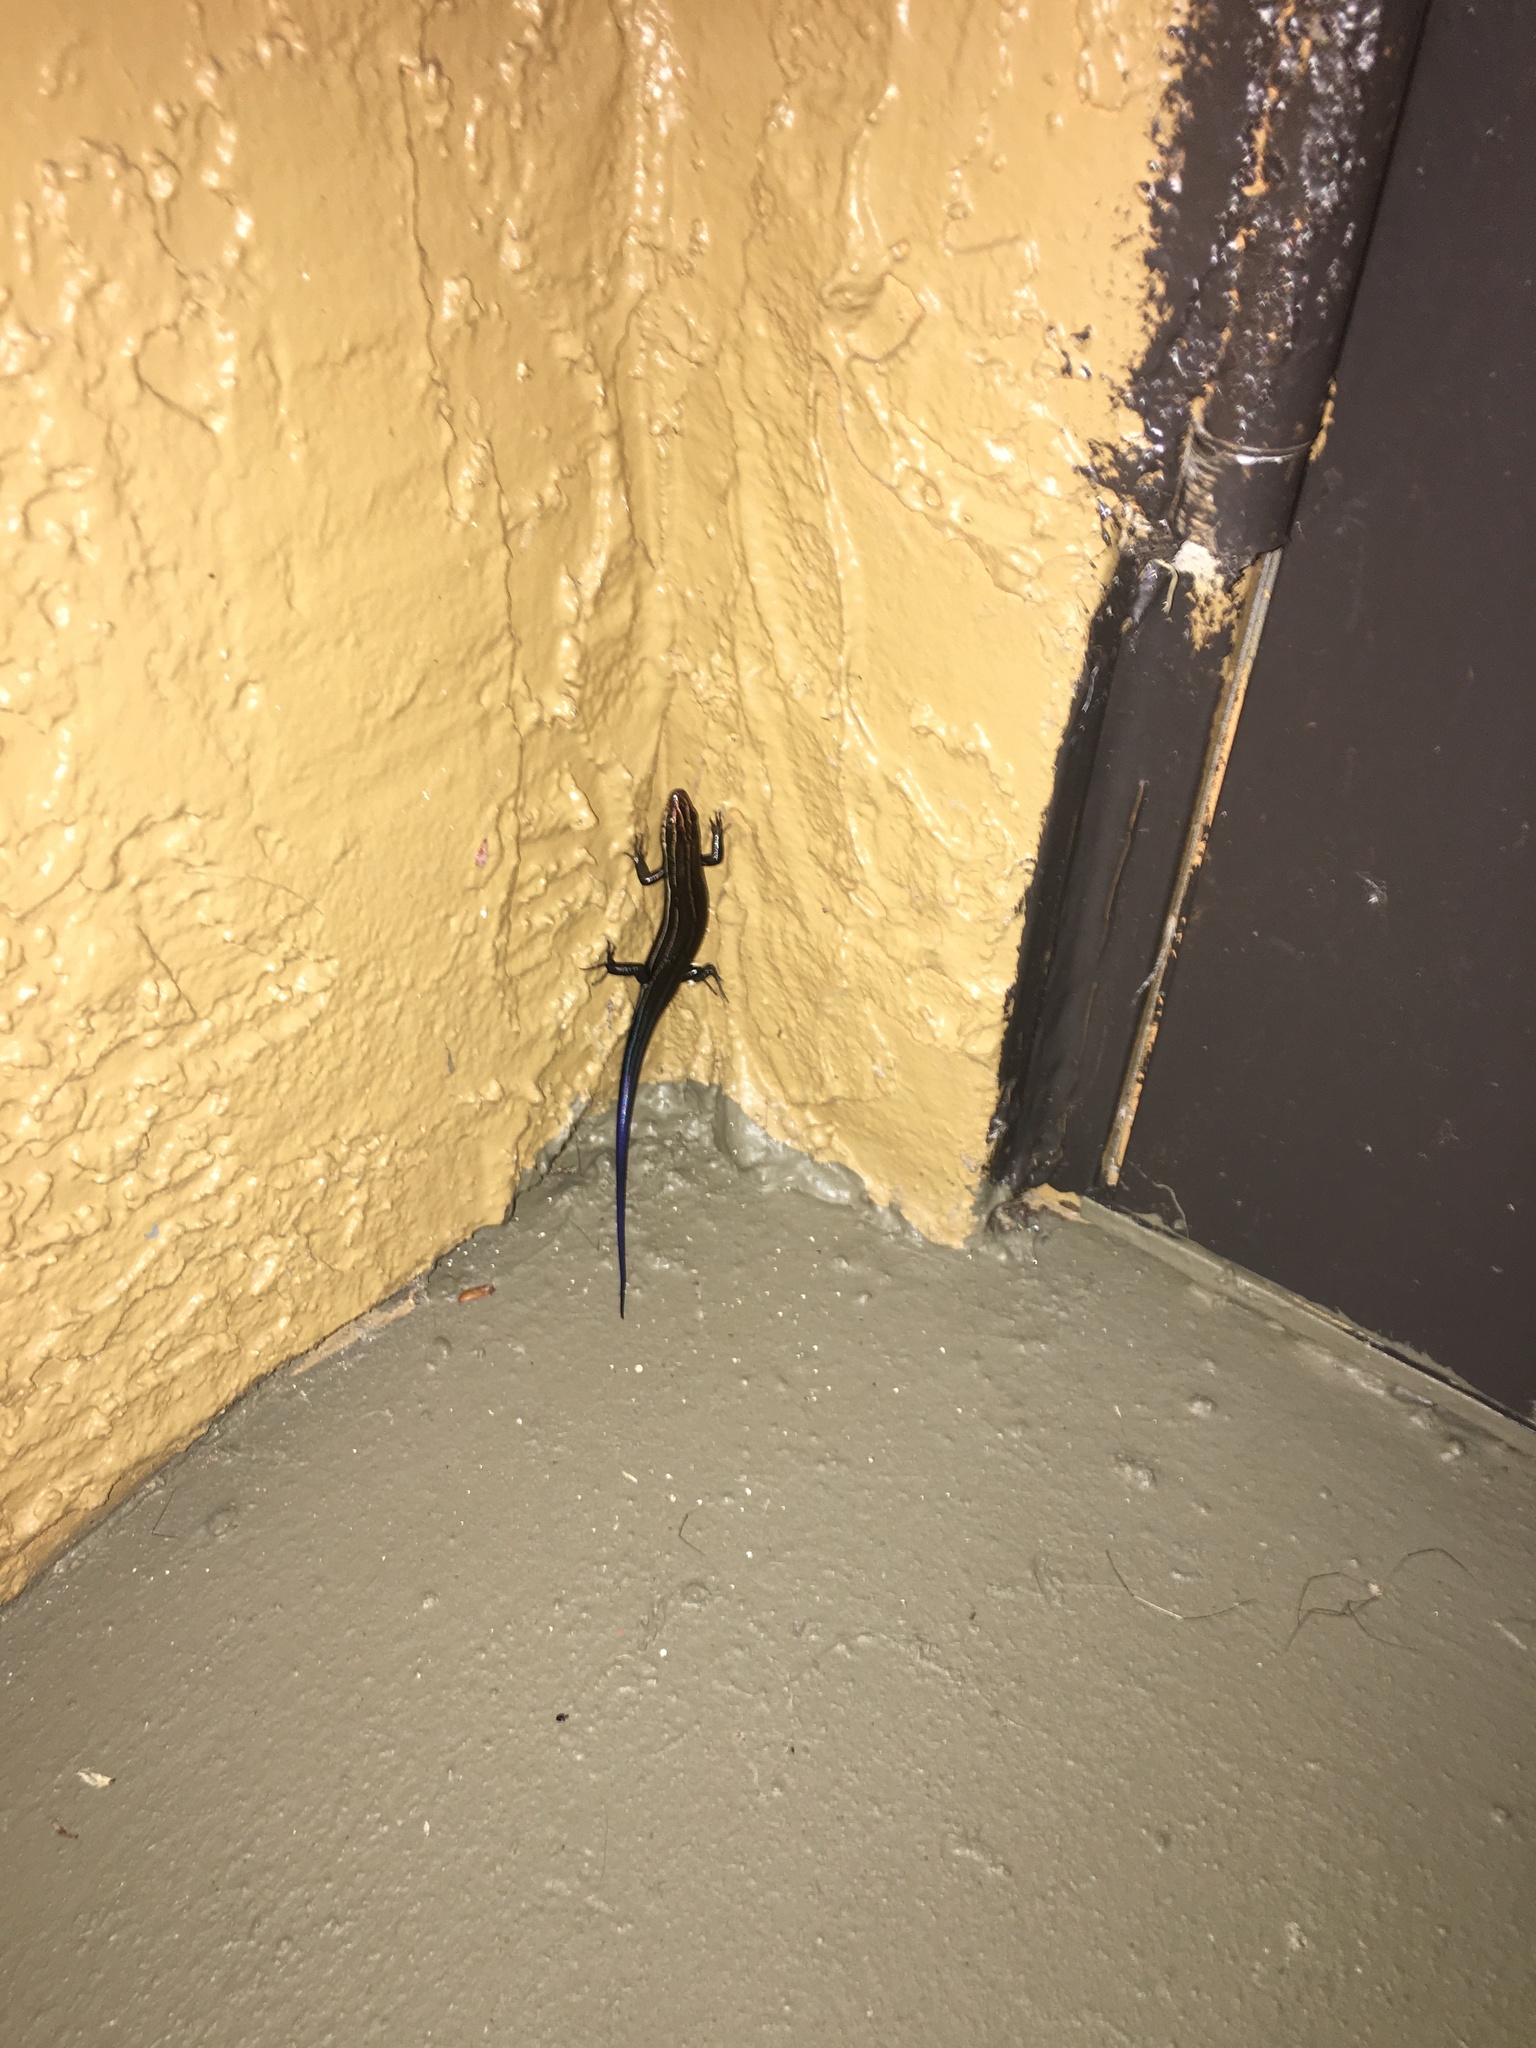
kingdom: Animalia
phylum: Chordata
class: Squamata
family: Scincidae
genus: Plestiodon
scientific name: Plestiodon inexpectatus
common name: Southeastern five-lined skink
